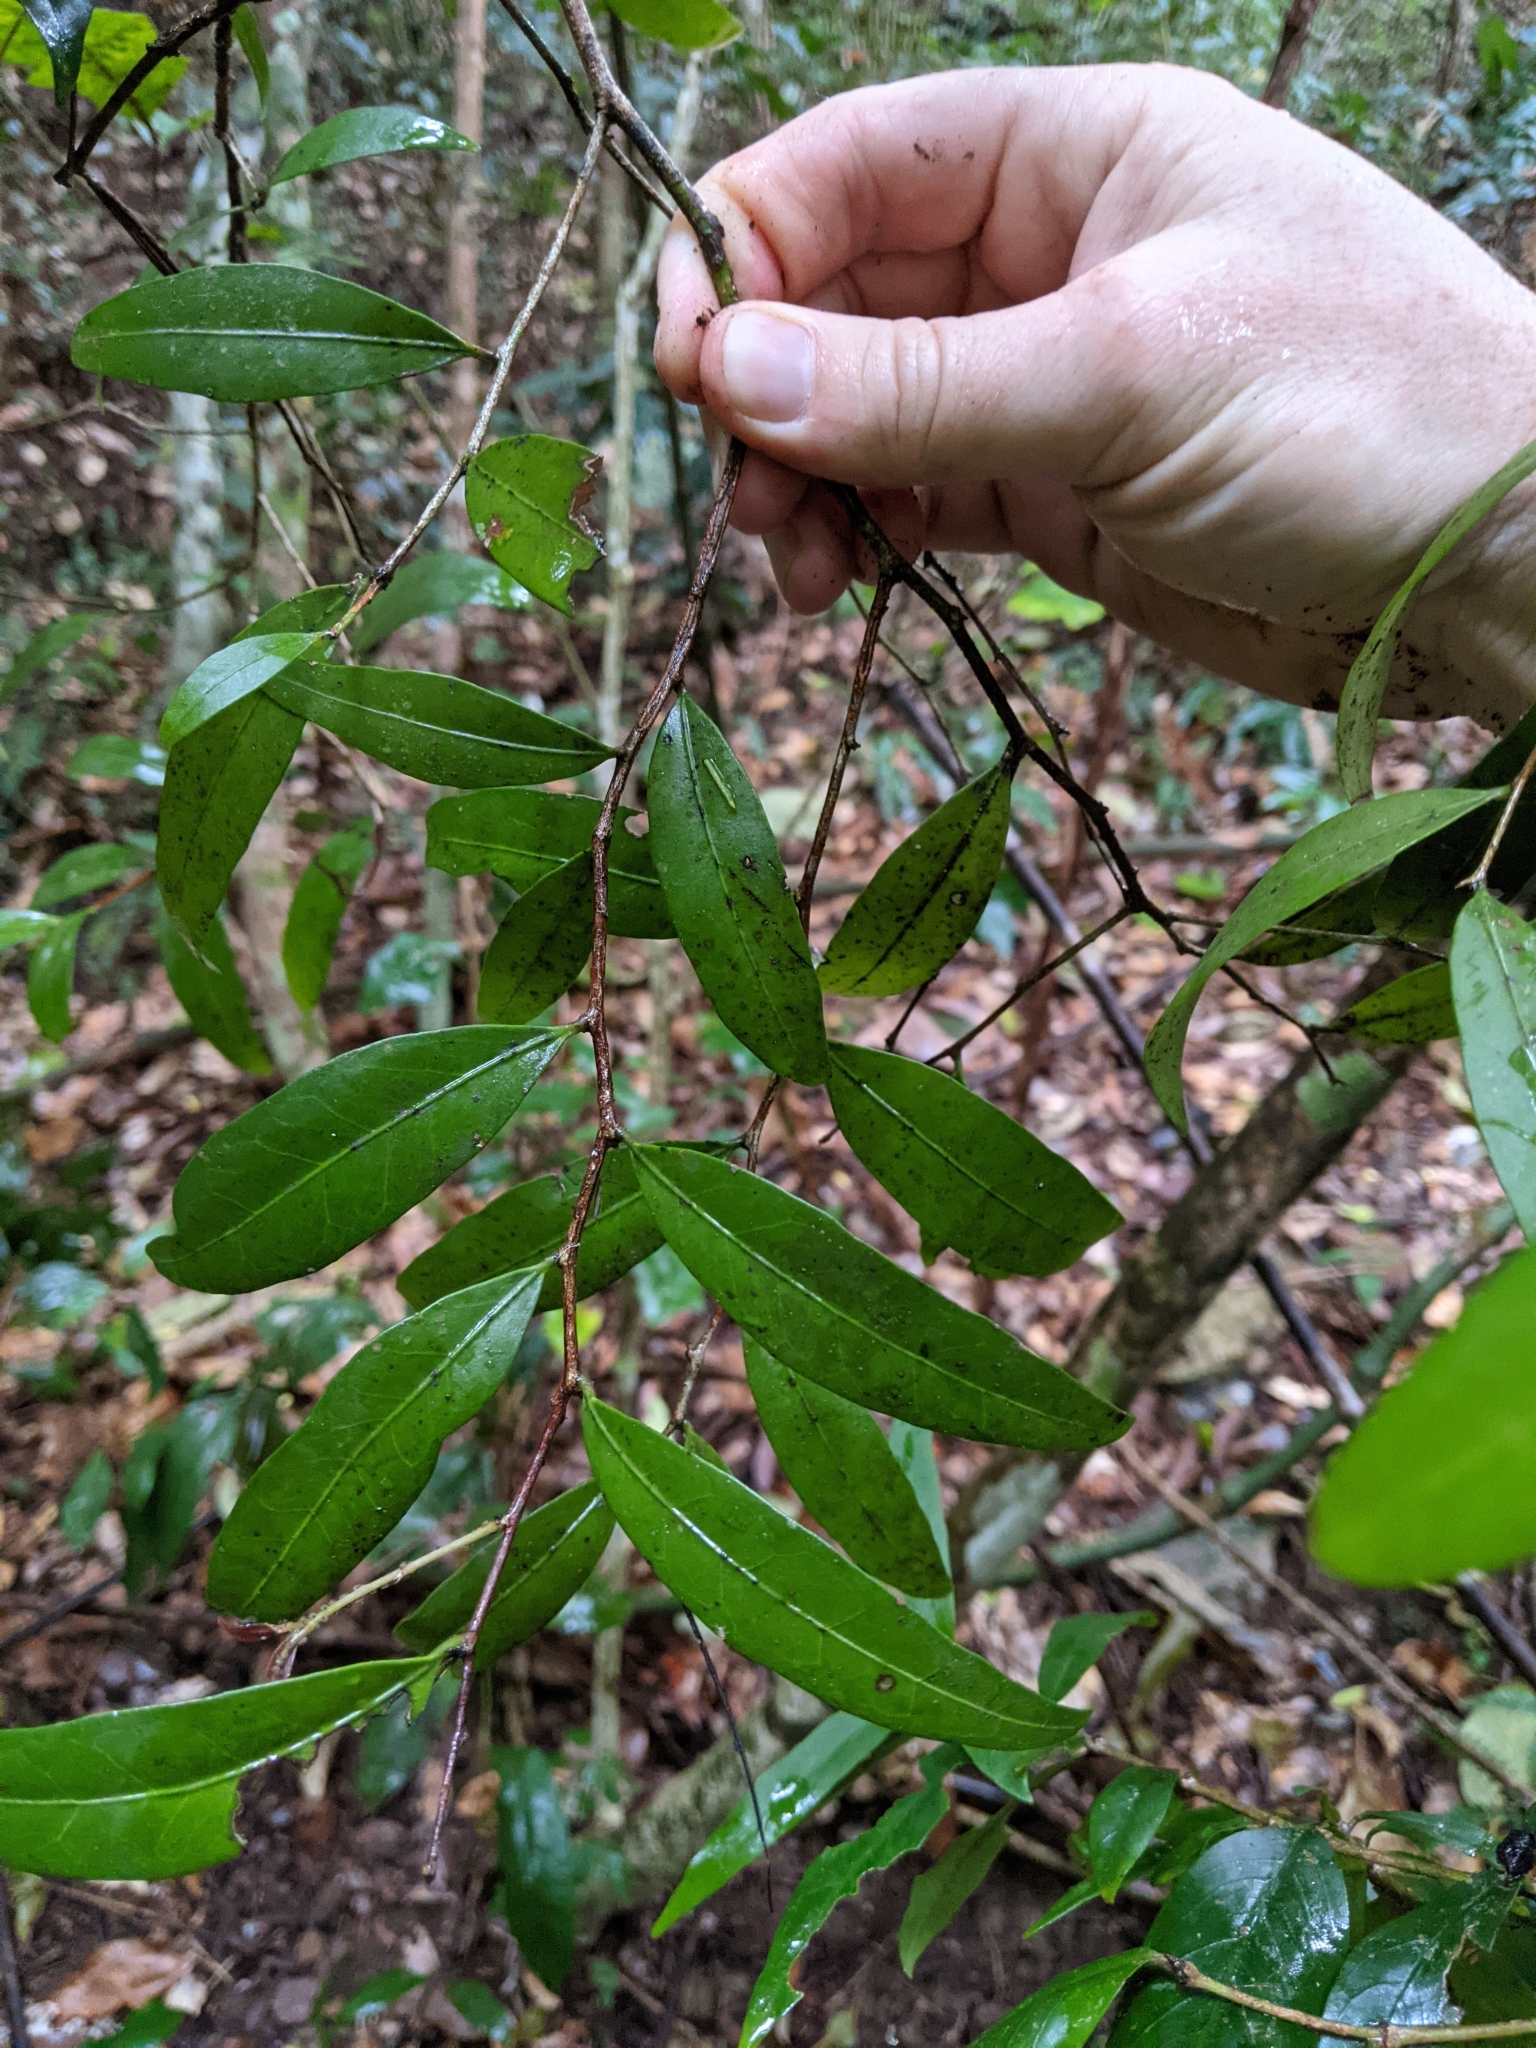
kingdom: Plantae
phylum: Tracheophyta
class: Magnoliopsida
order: Celastrales
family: Celastraceae
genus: Hedraianthera
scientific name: Hedraianthera porphyropetala
